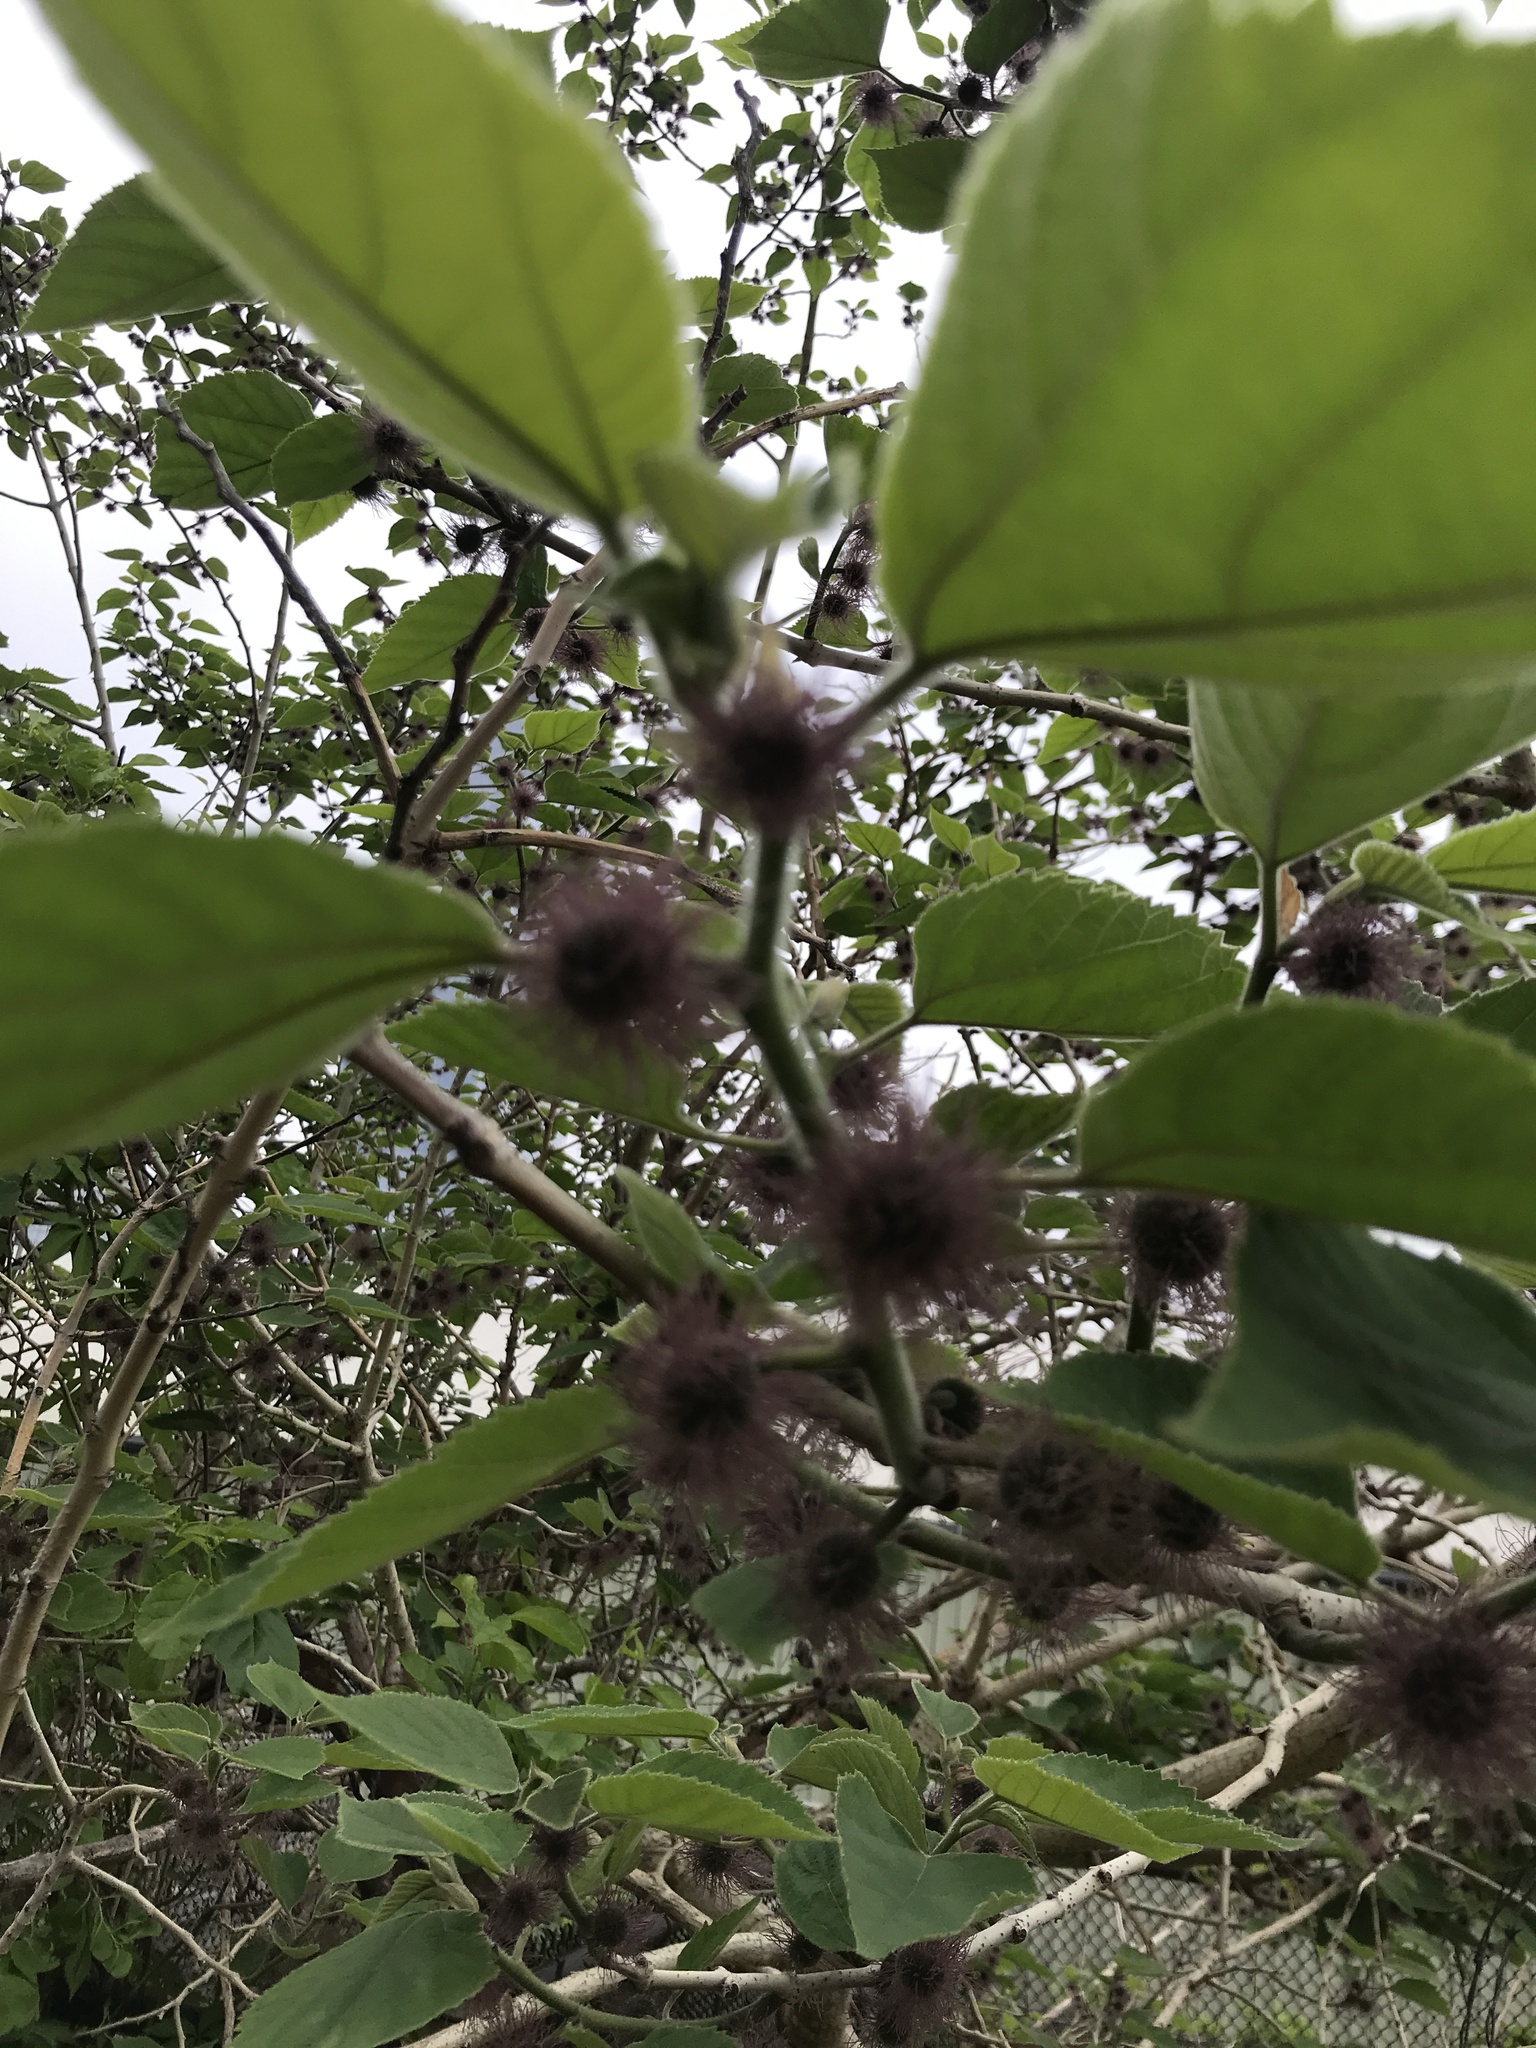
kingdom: Plantae
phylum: Tracheophyta
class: Magnoliopsida
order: Rosales
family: Moraceae
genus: Broussonetia
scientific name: Broussonetia papyrifera
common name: Paper mulberry
